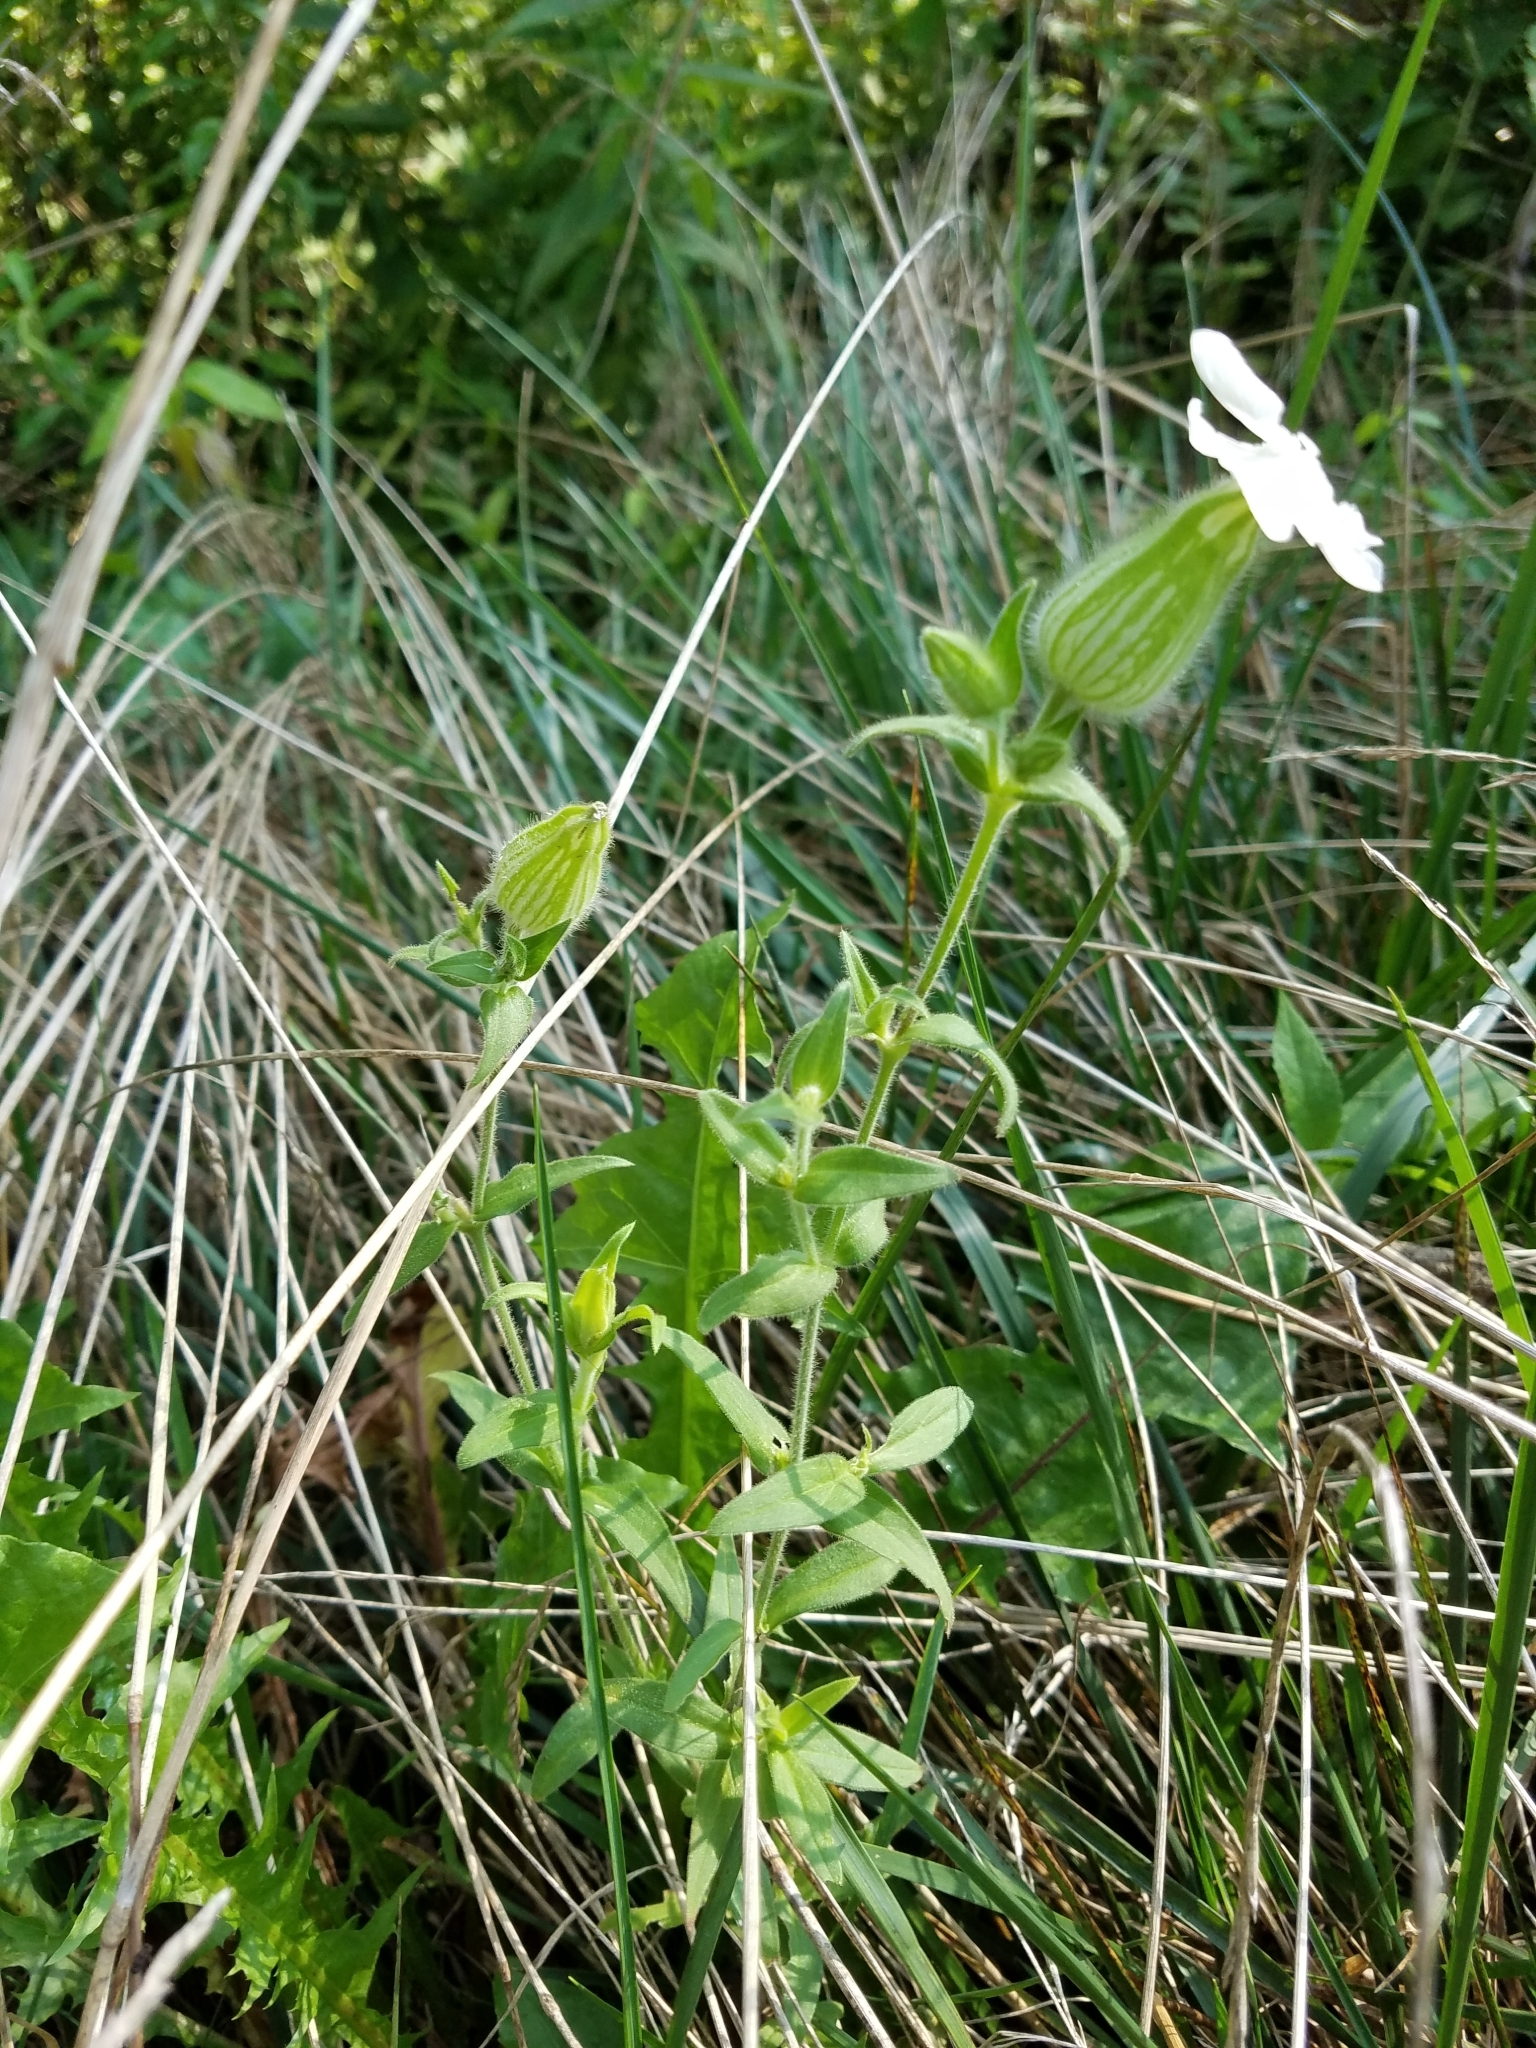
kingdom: Plantae
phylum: Tracheophyta
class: Magnoliopsida
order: Caryophyllales
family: Caryophyllaceae
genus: Silene
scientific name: Silene latifolia
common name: White campion
